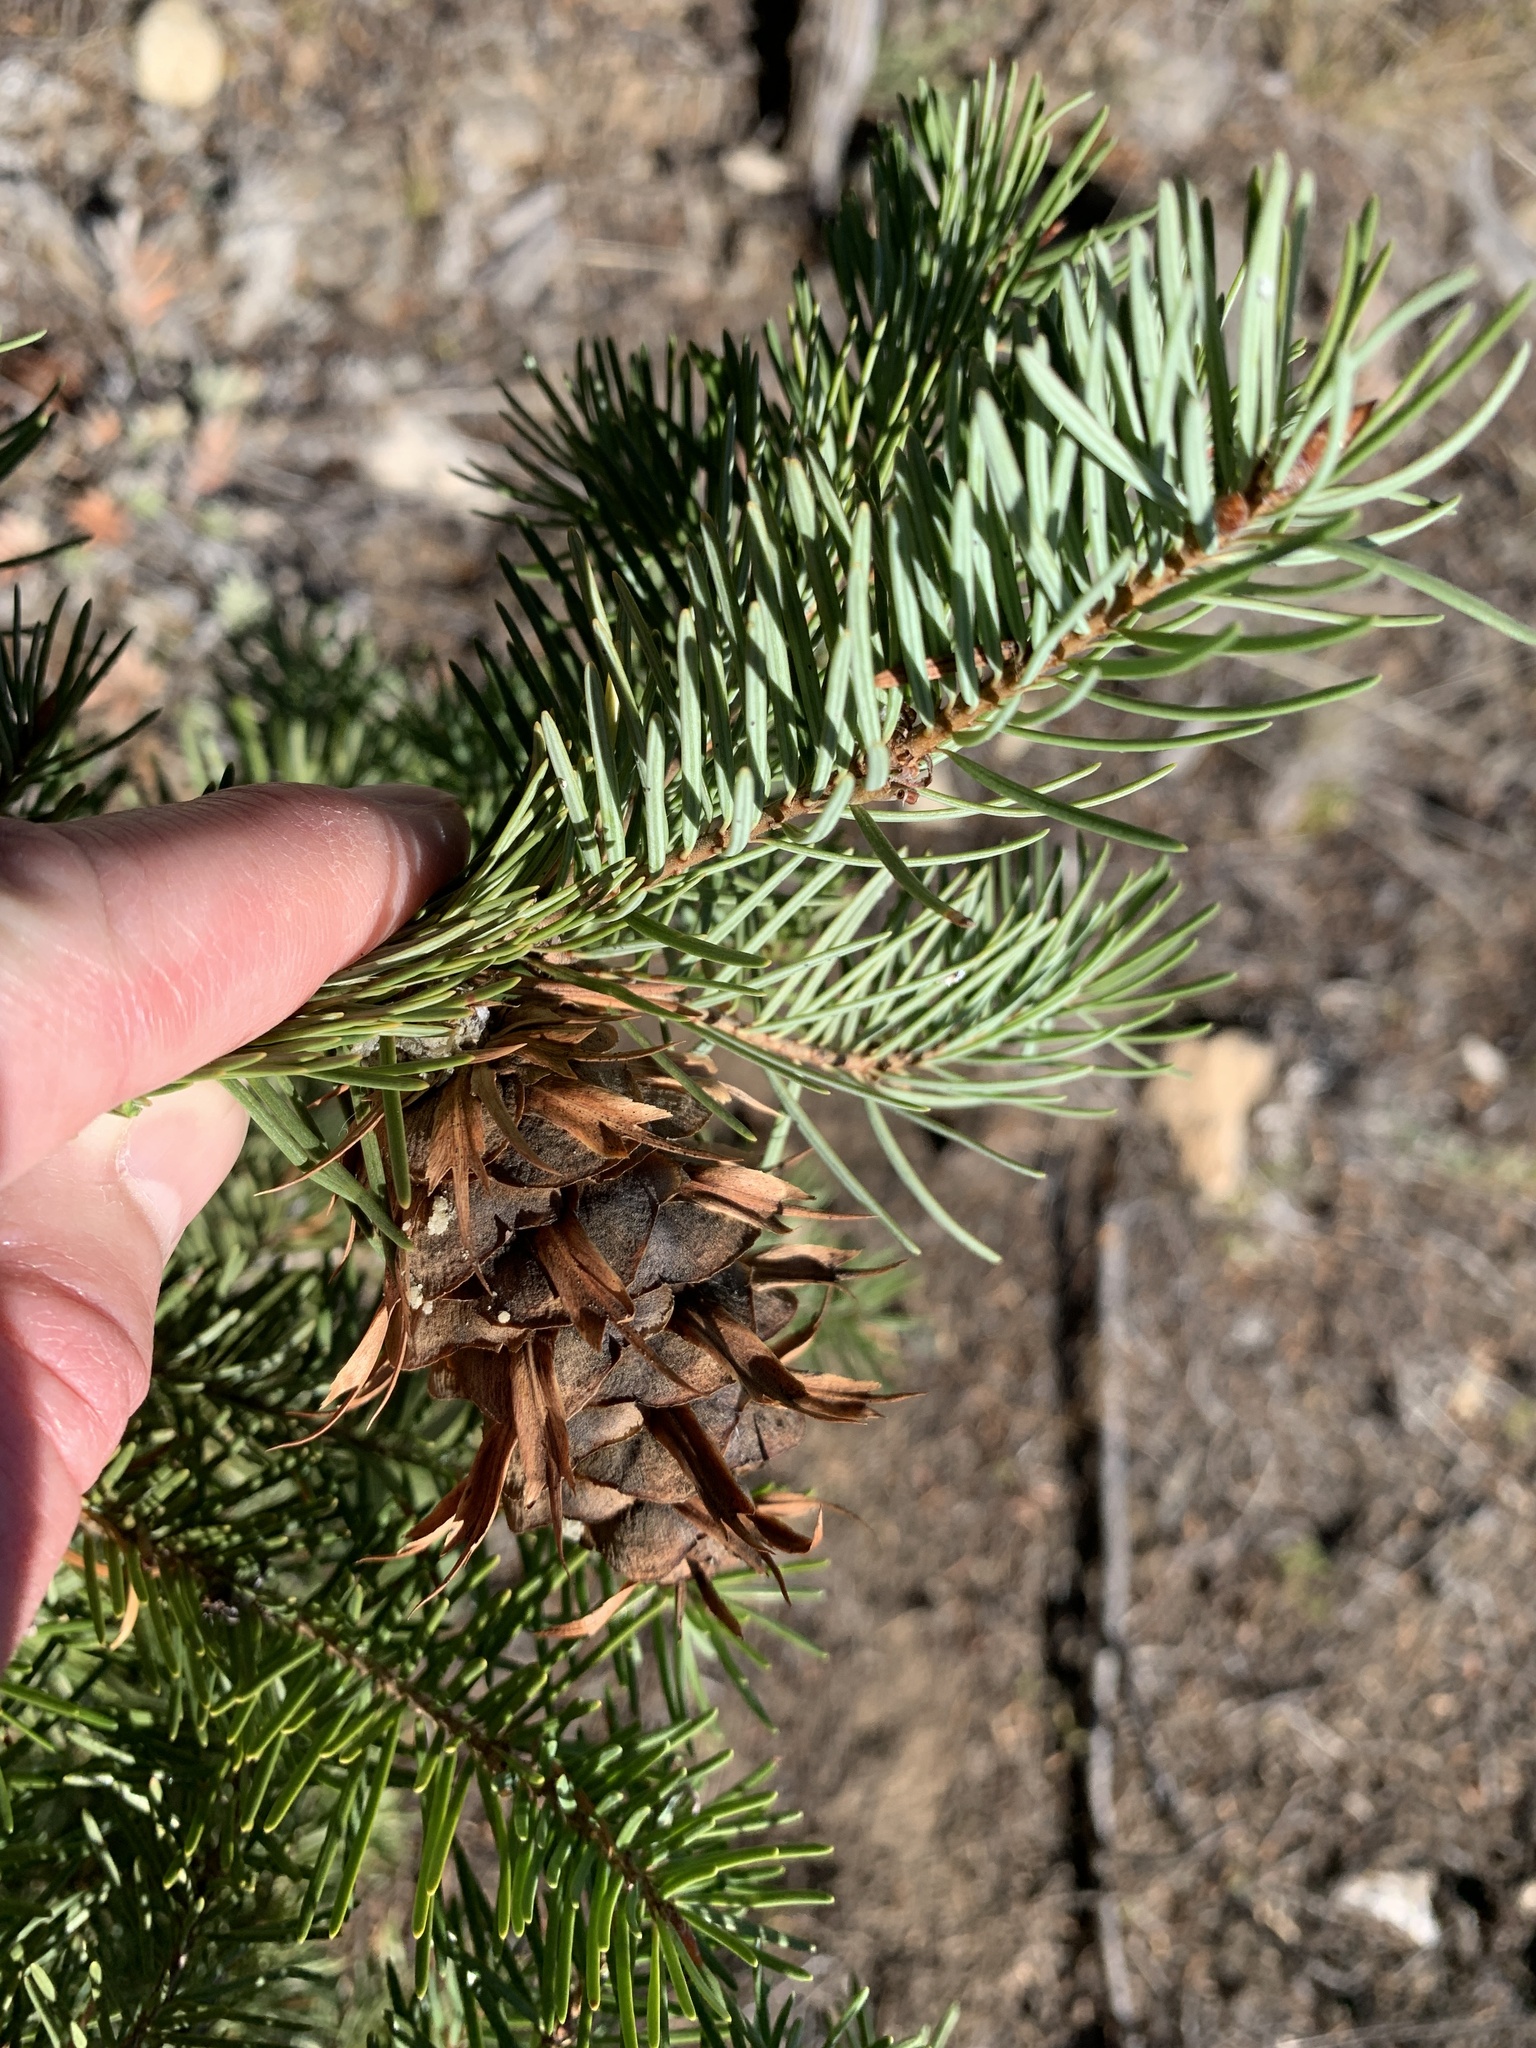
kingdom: Plantae
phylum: Tracheophyta
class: Pinopsida
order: Pinales
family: Pinaceae
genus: Pseudotsuga
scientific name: Pseudotsuga menziesii
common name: Douglas fir
